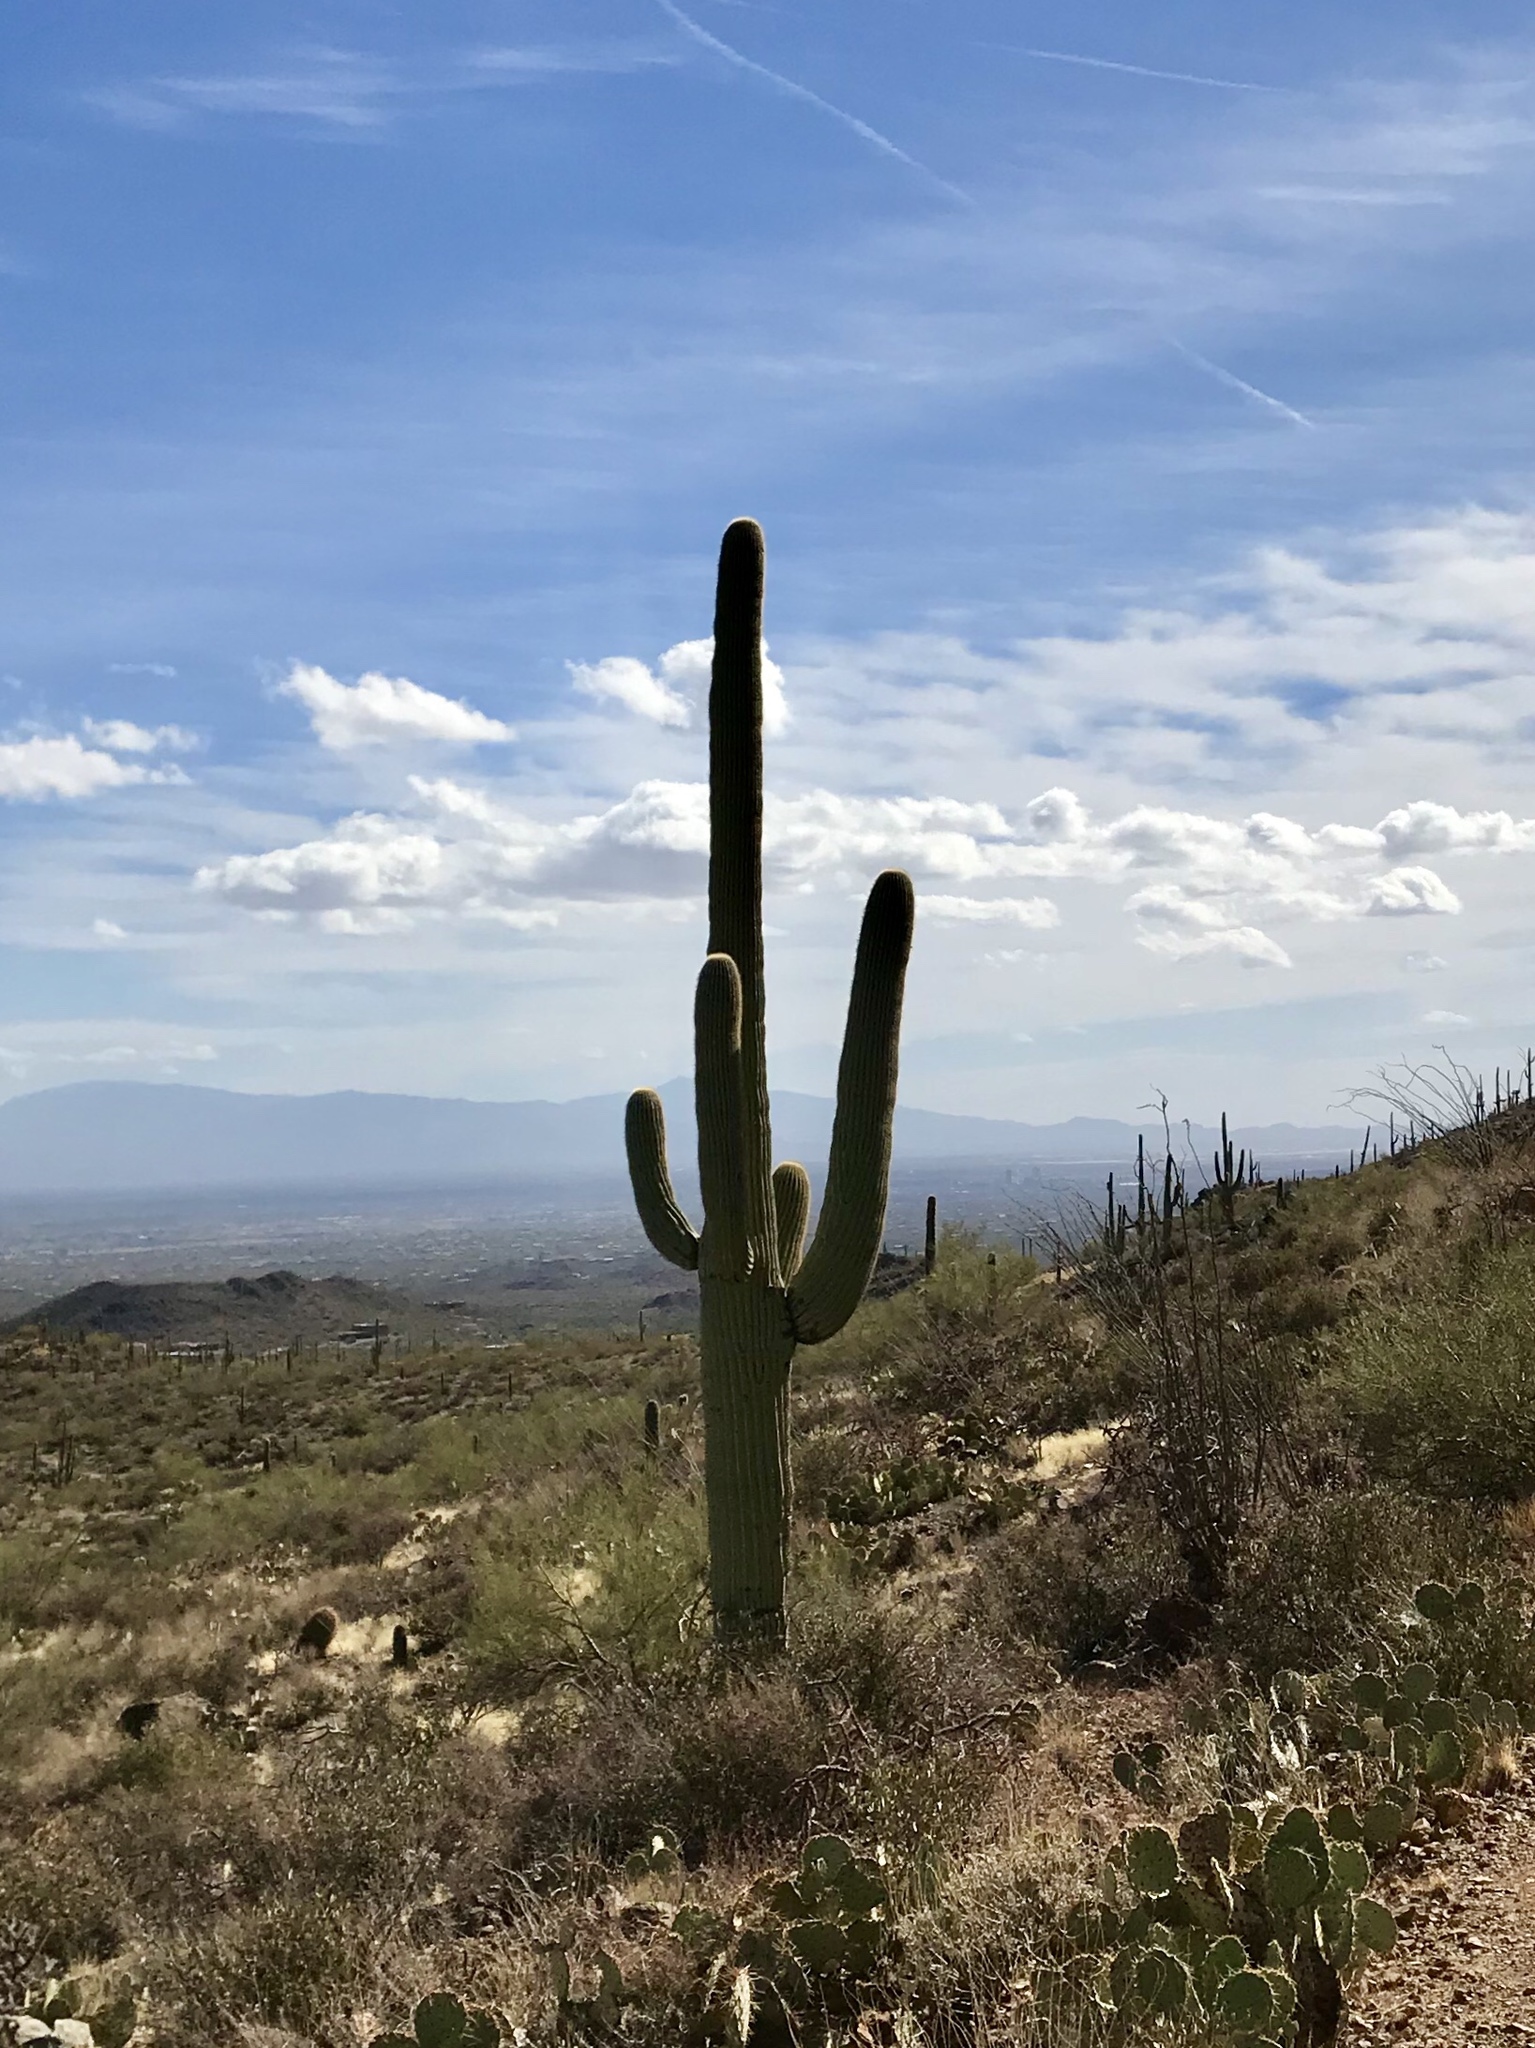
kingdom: Plantae
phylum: Tracheophyta
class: Magnoliopsida
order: Caryophyllales
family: Cactaceae
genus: Carnegiea
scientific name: Carnegiea gigantea
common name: Saguaro
